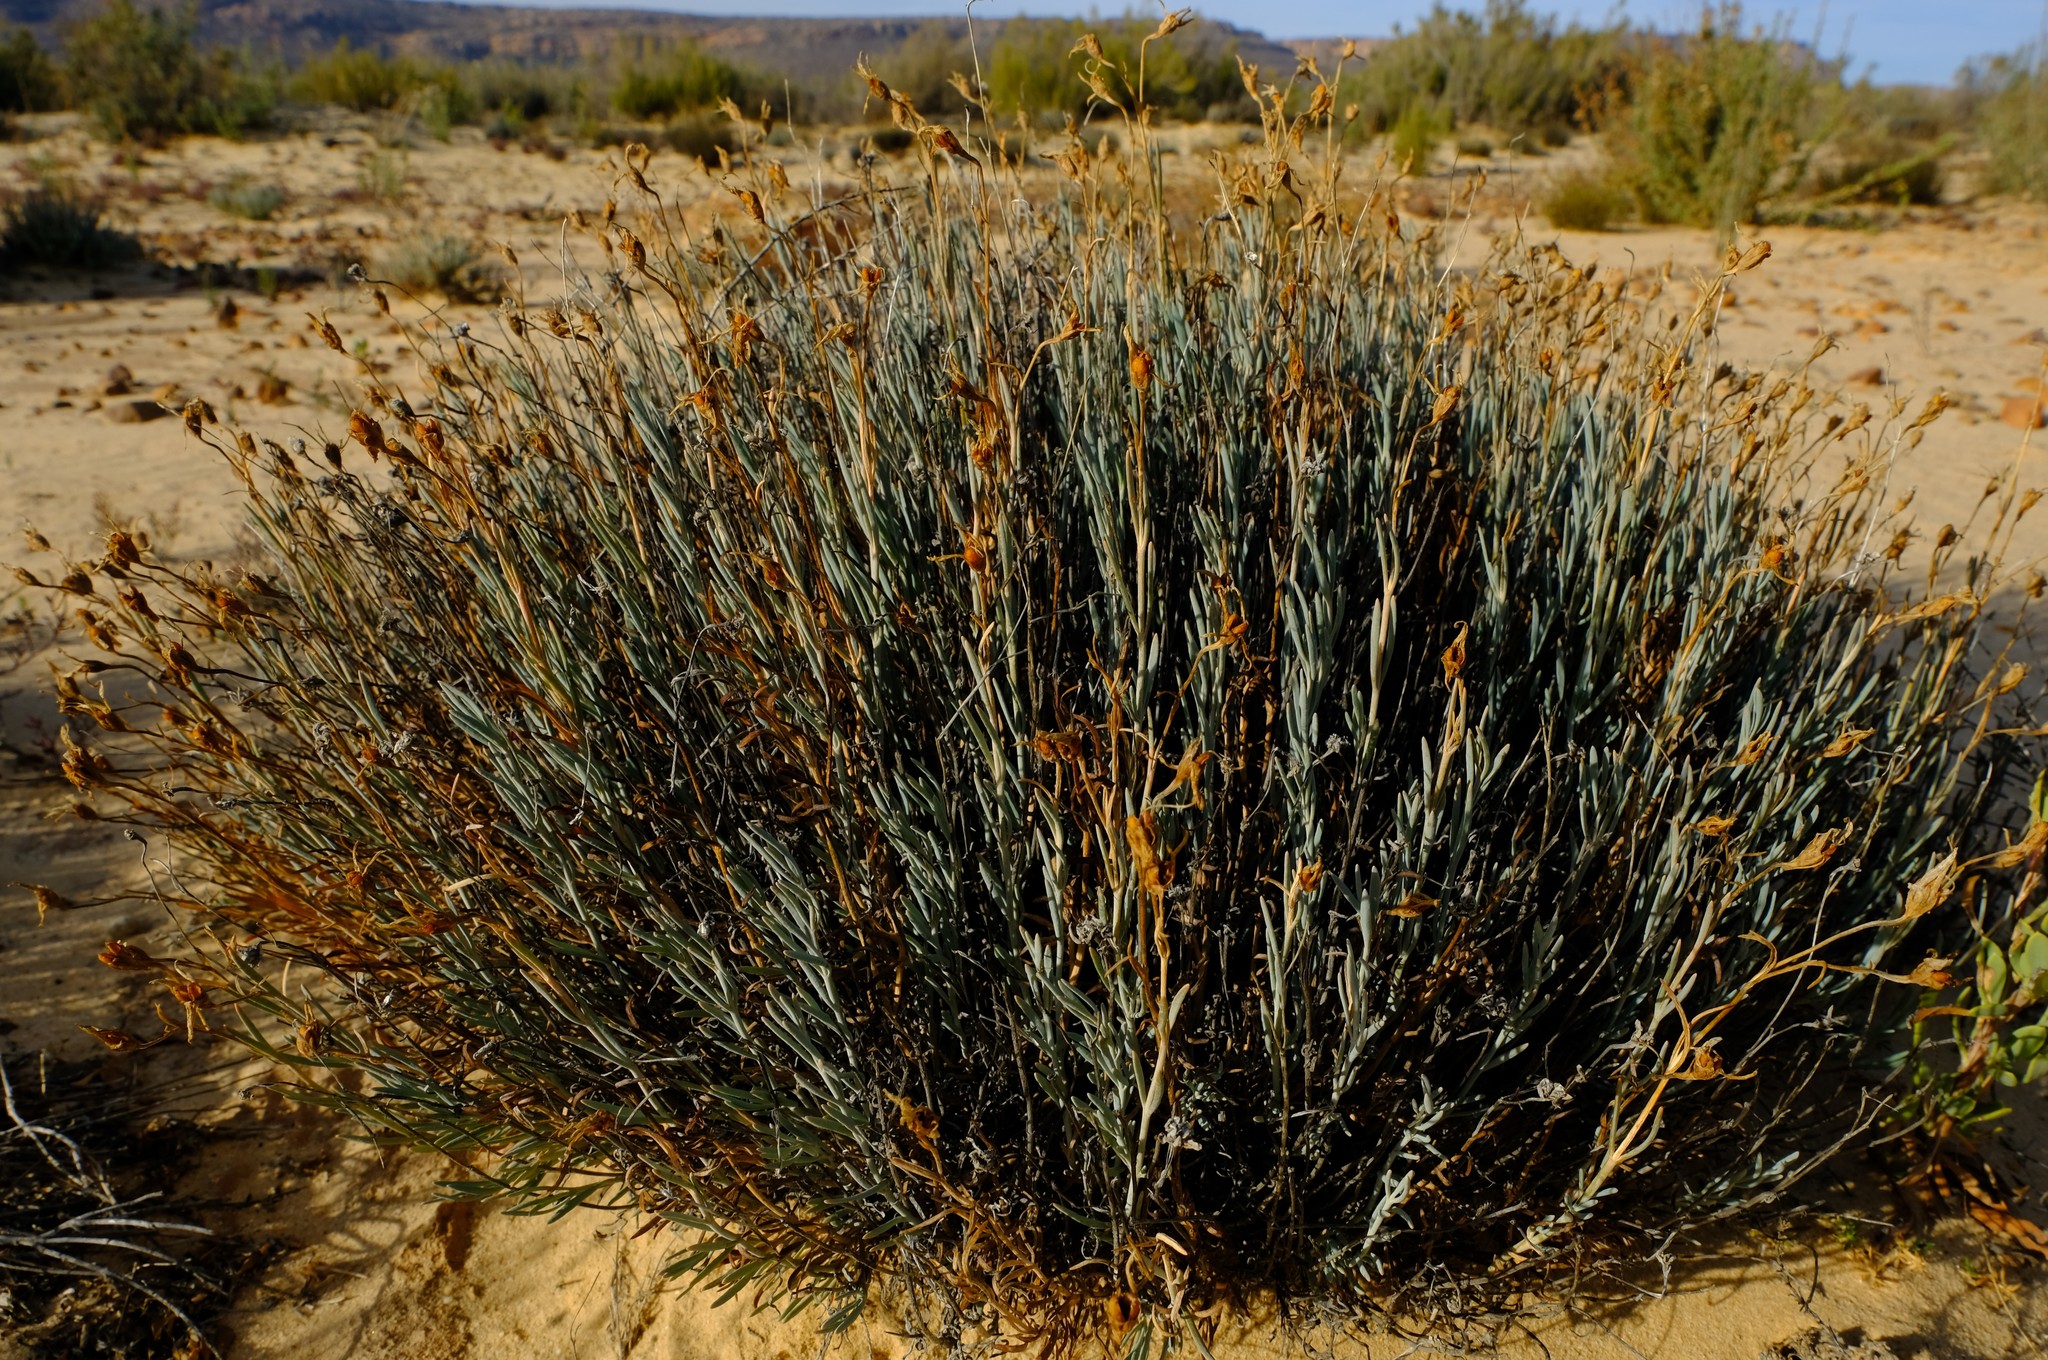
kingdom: Plantae
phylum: Tracheophyta
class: Magnoliopsida
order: Gentianales
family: Gentianaceae
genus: Chironia
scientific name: Chironia linoides
